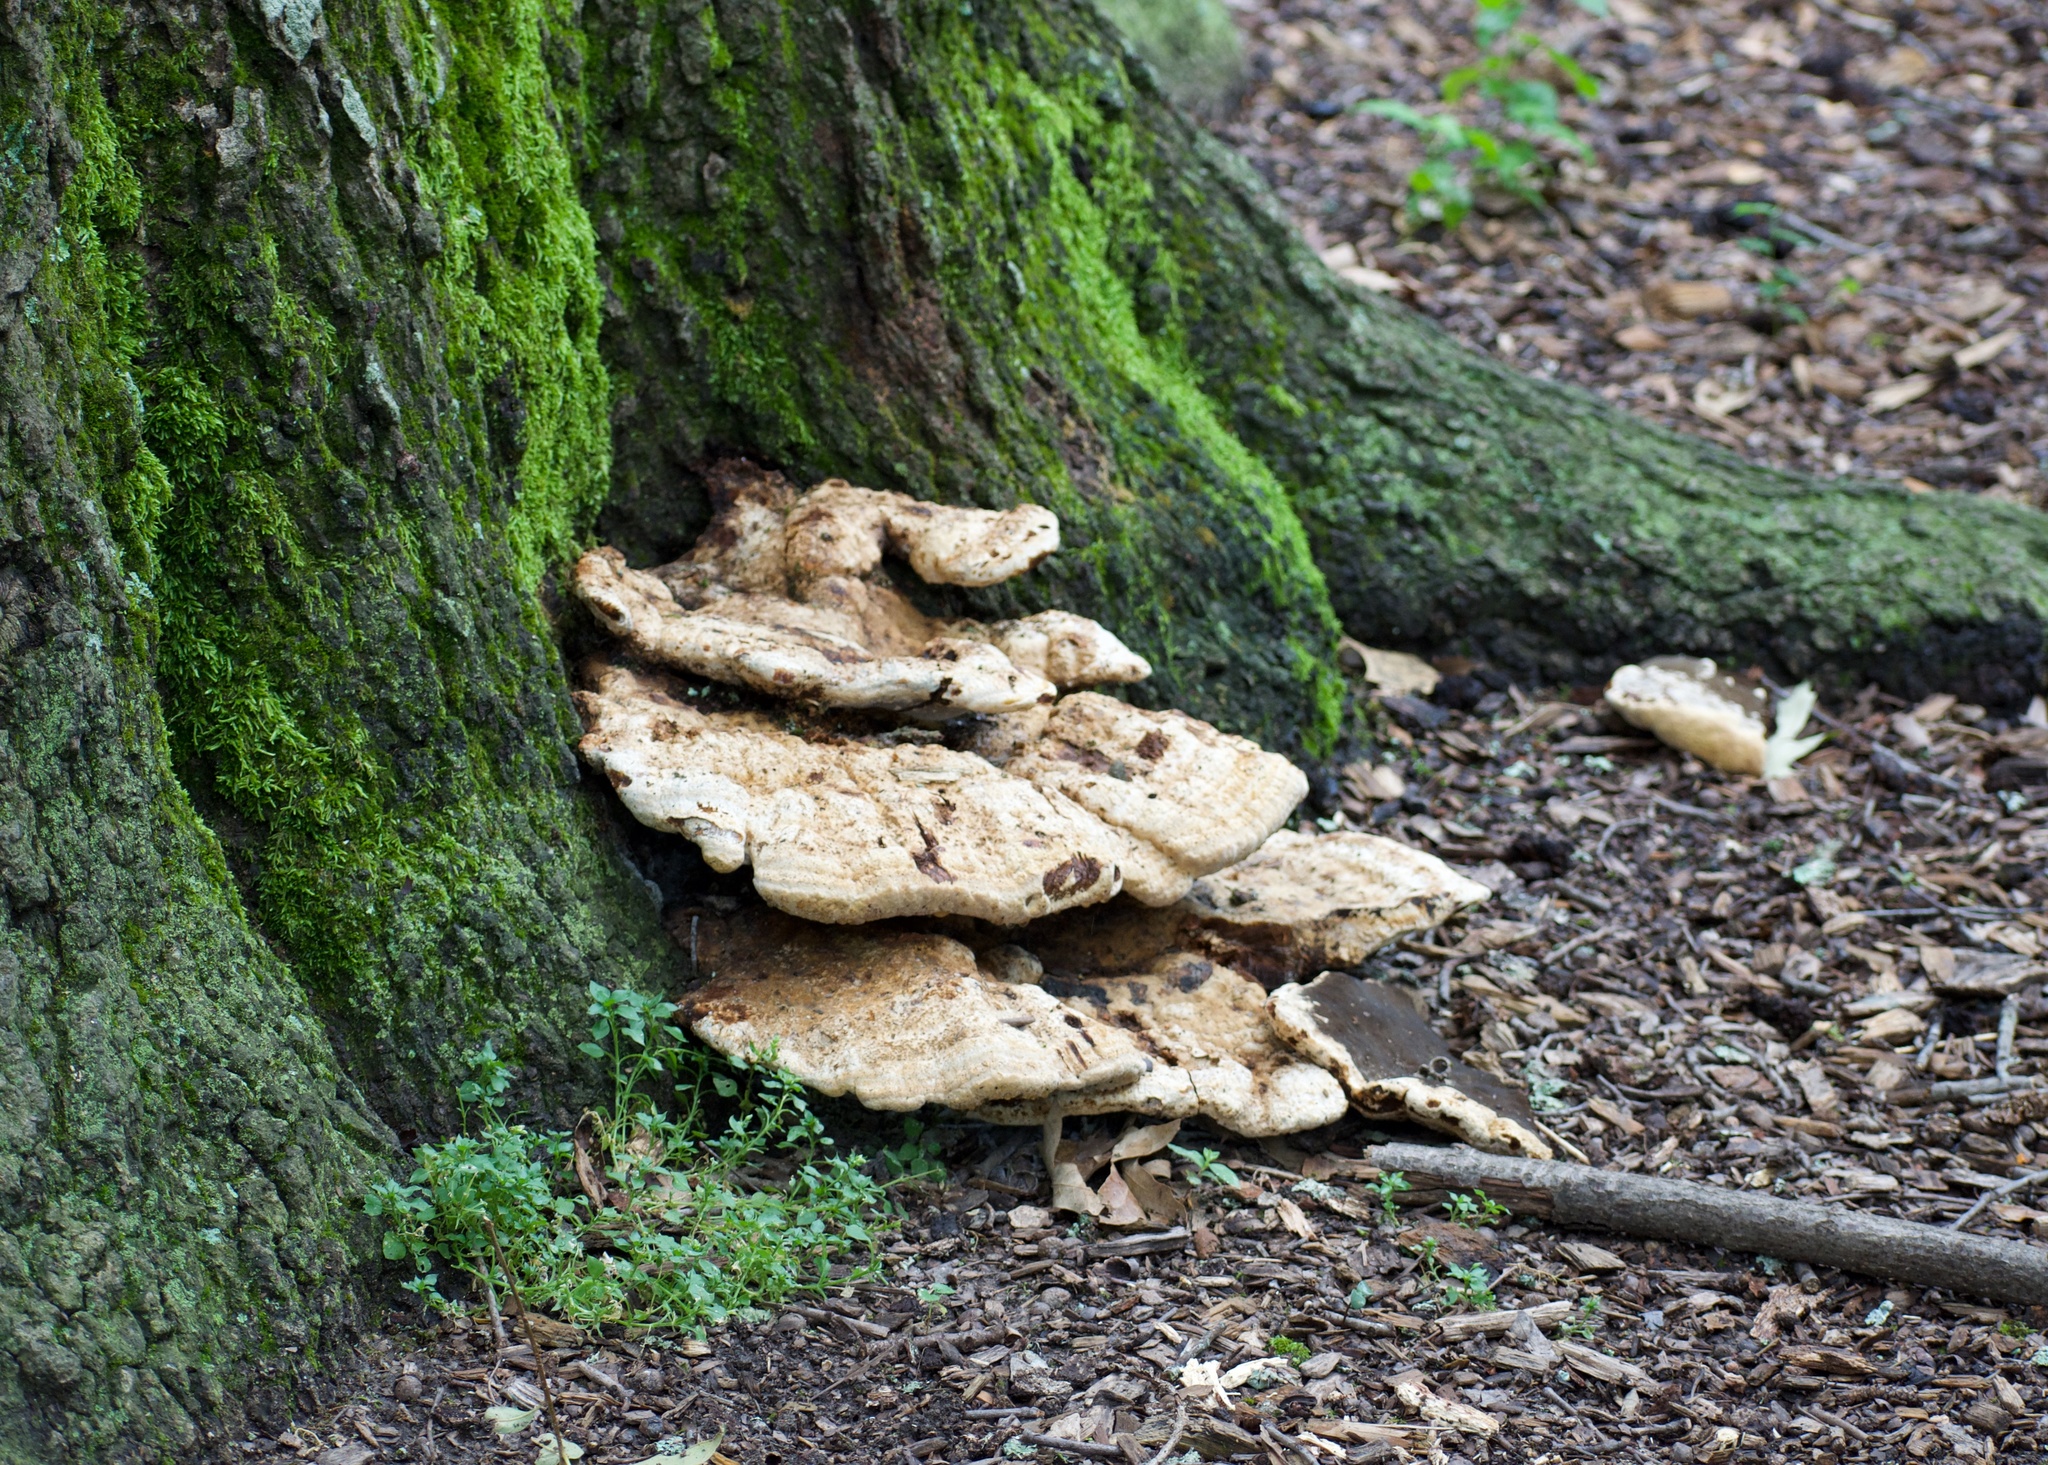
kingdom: Fungi
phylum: Basidiomycota
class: Agaricomycetes
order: Hymenochaetales
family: Hymenochaetaceae
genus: Pseudoinonotus
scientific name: Pseudoinonotus dryadeus
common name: Oak bracket
